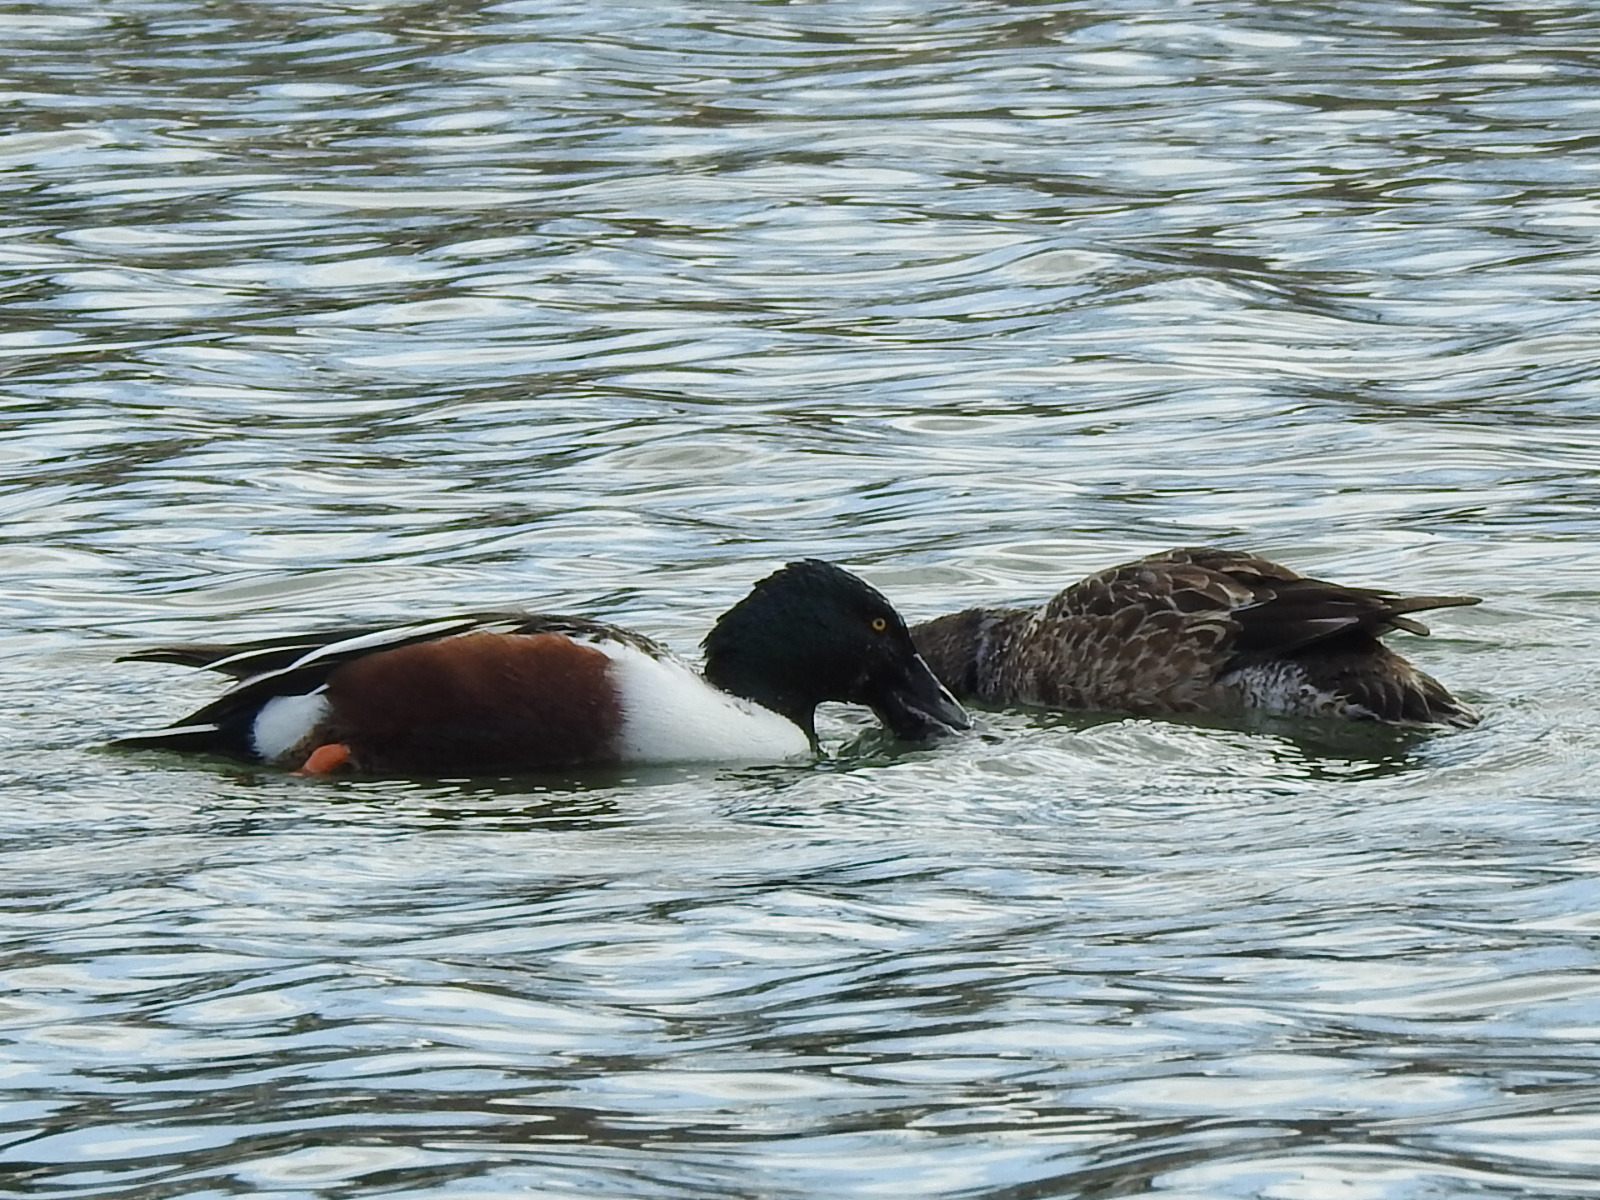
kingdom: Animalia
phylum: Chordata
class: Aves
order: Anseriformes
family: Anatidae
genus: Spatula
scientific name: Spatula clypeata
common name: Northern shoveler
